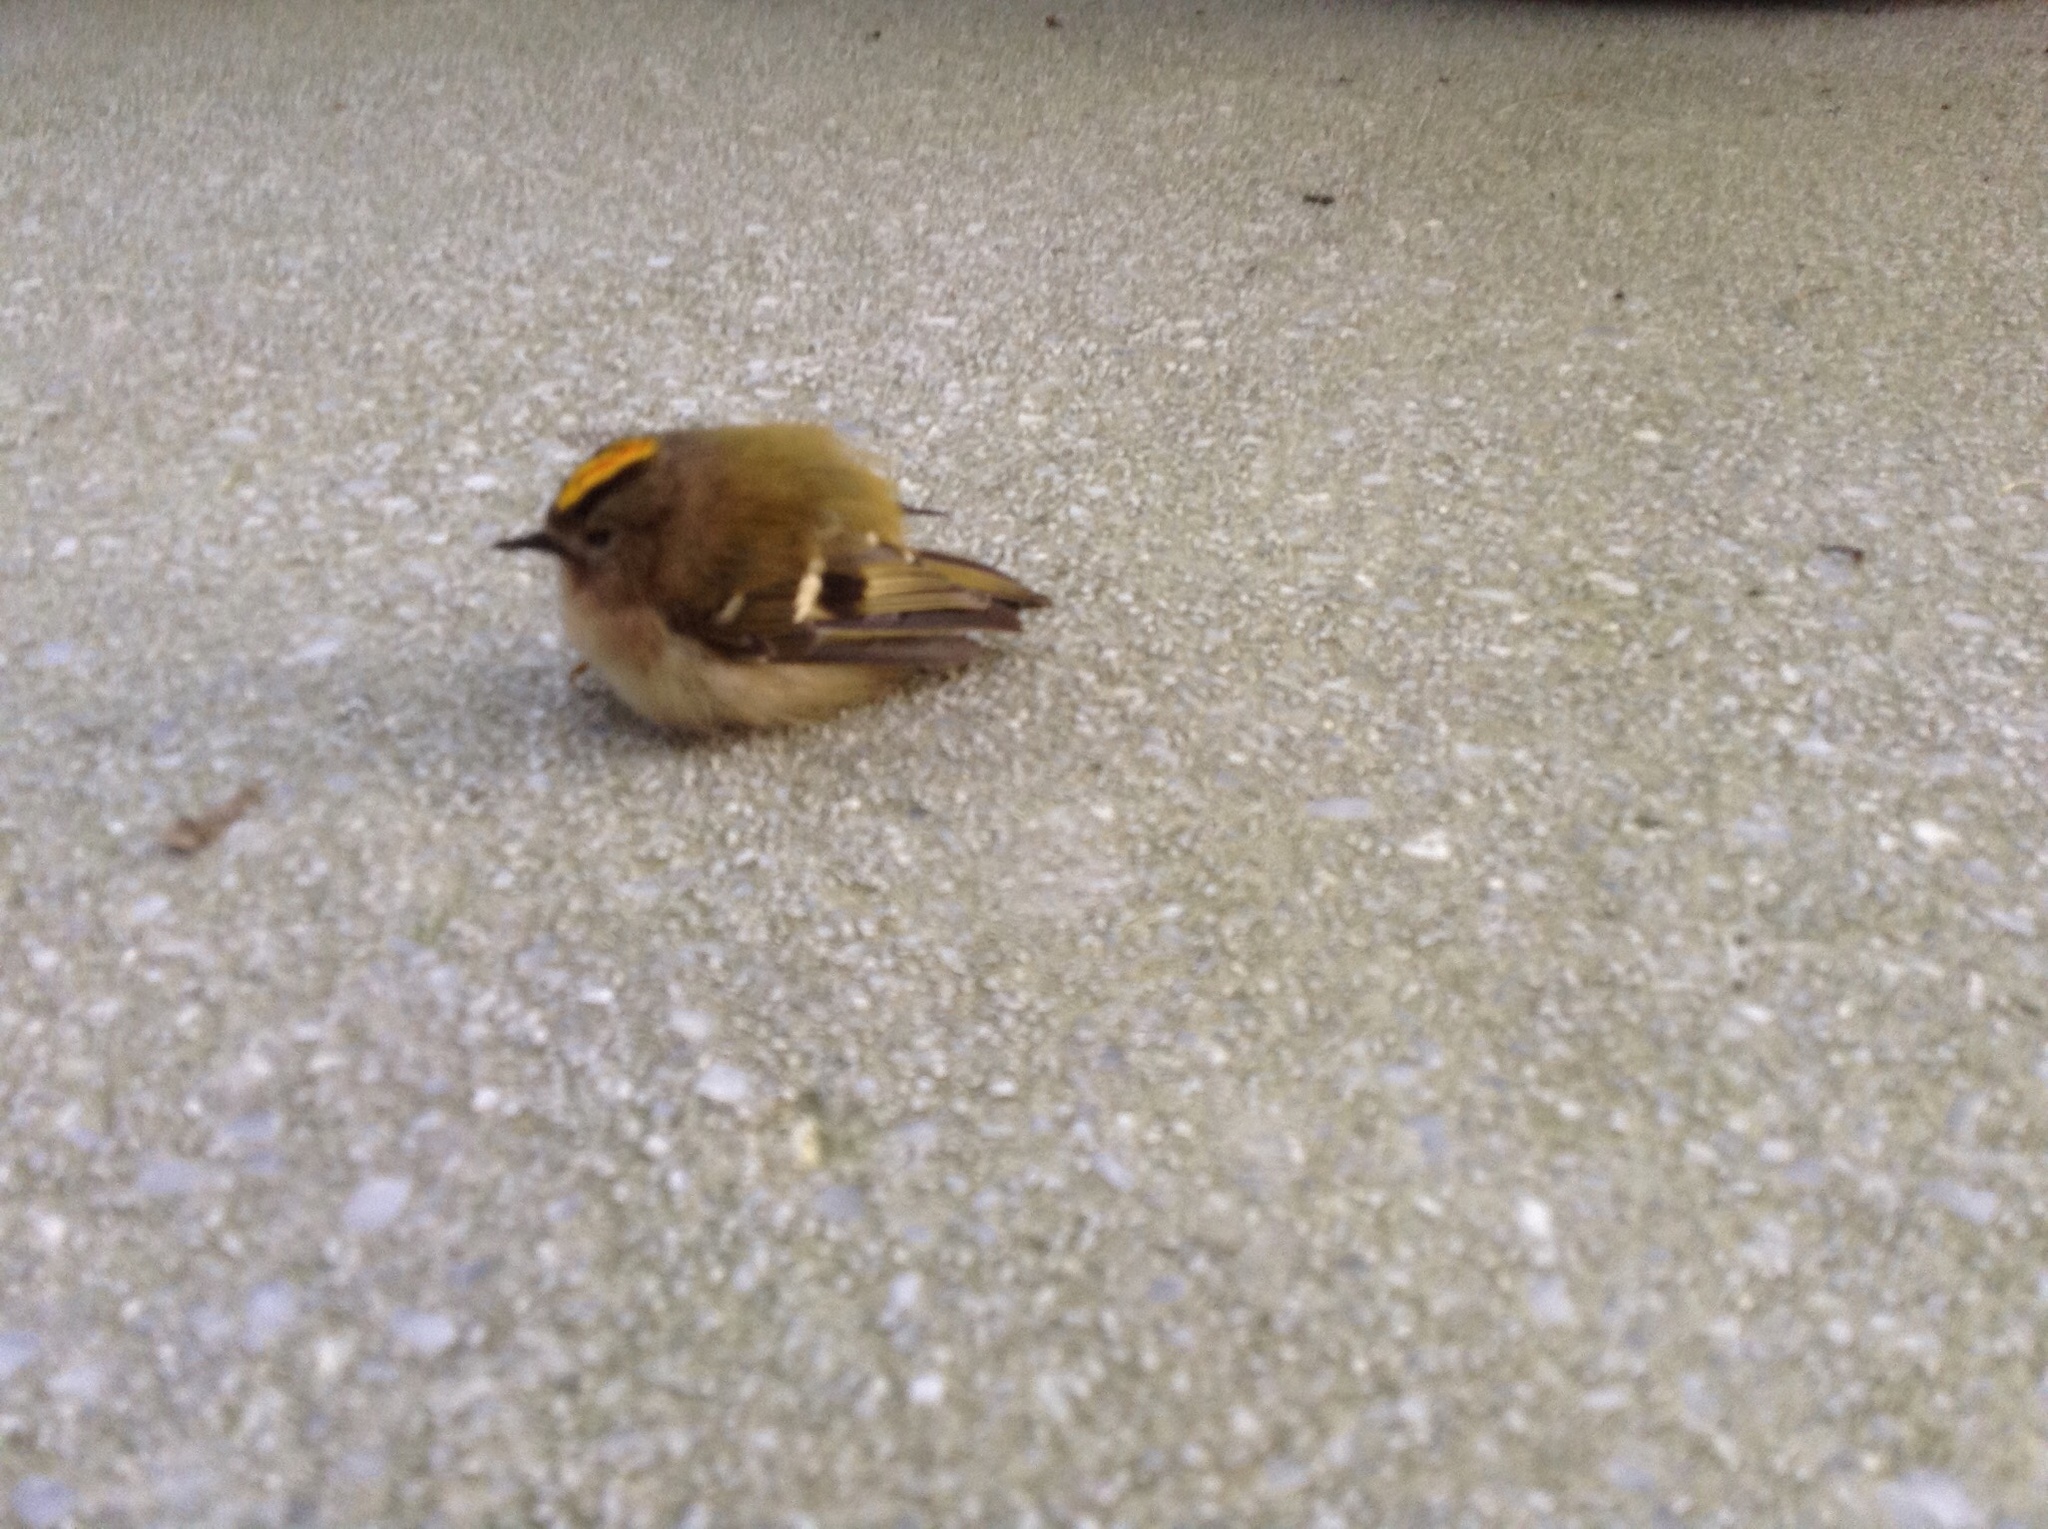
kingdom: Animalia
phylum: Chordata
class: Aves
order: Passeriformes
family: Regulidae
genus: Regulus
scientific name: Regulus regulus
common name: Goldcrest
